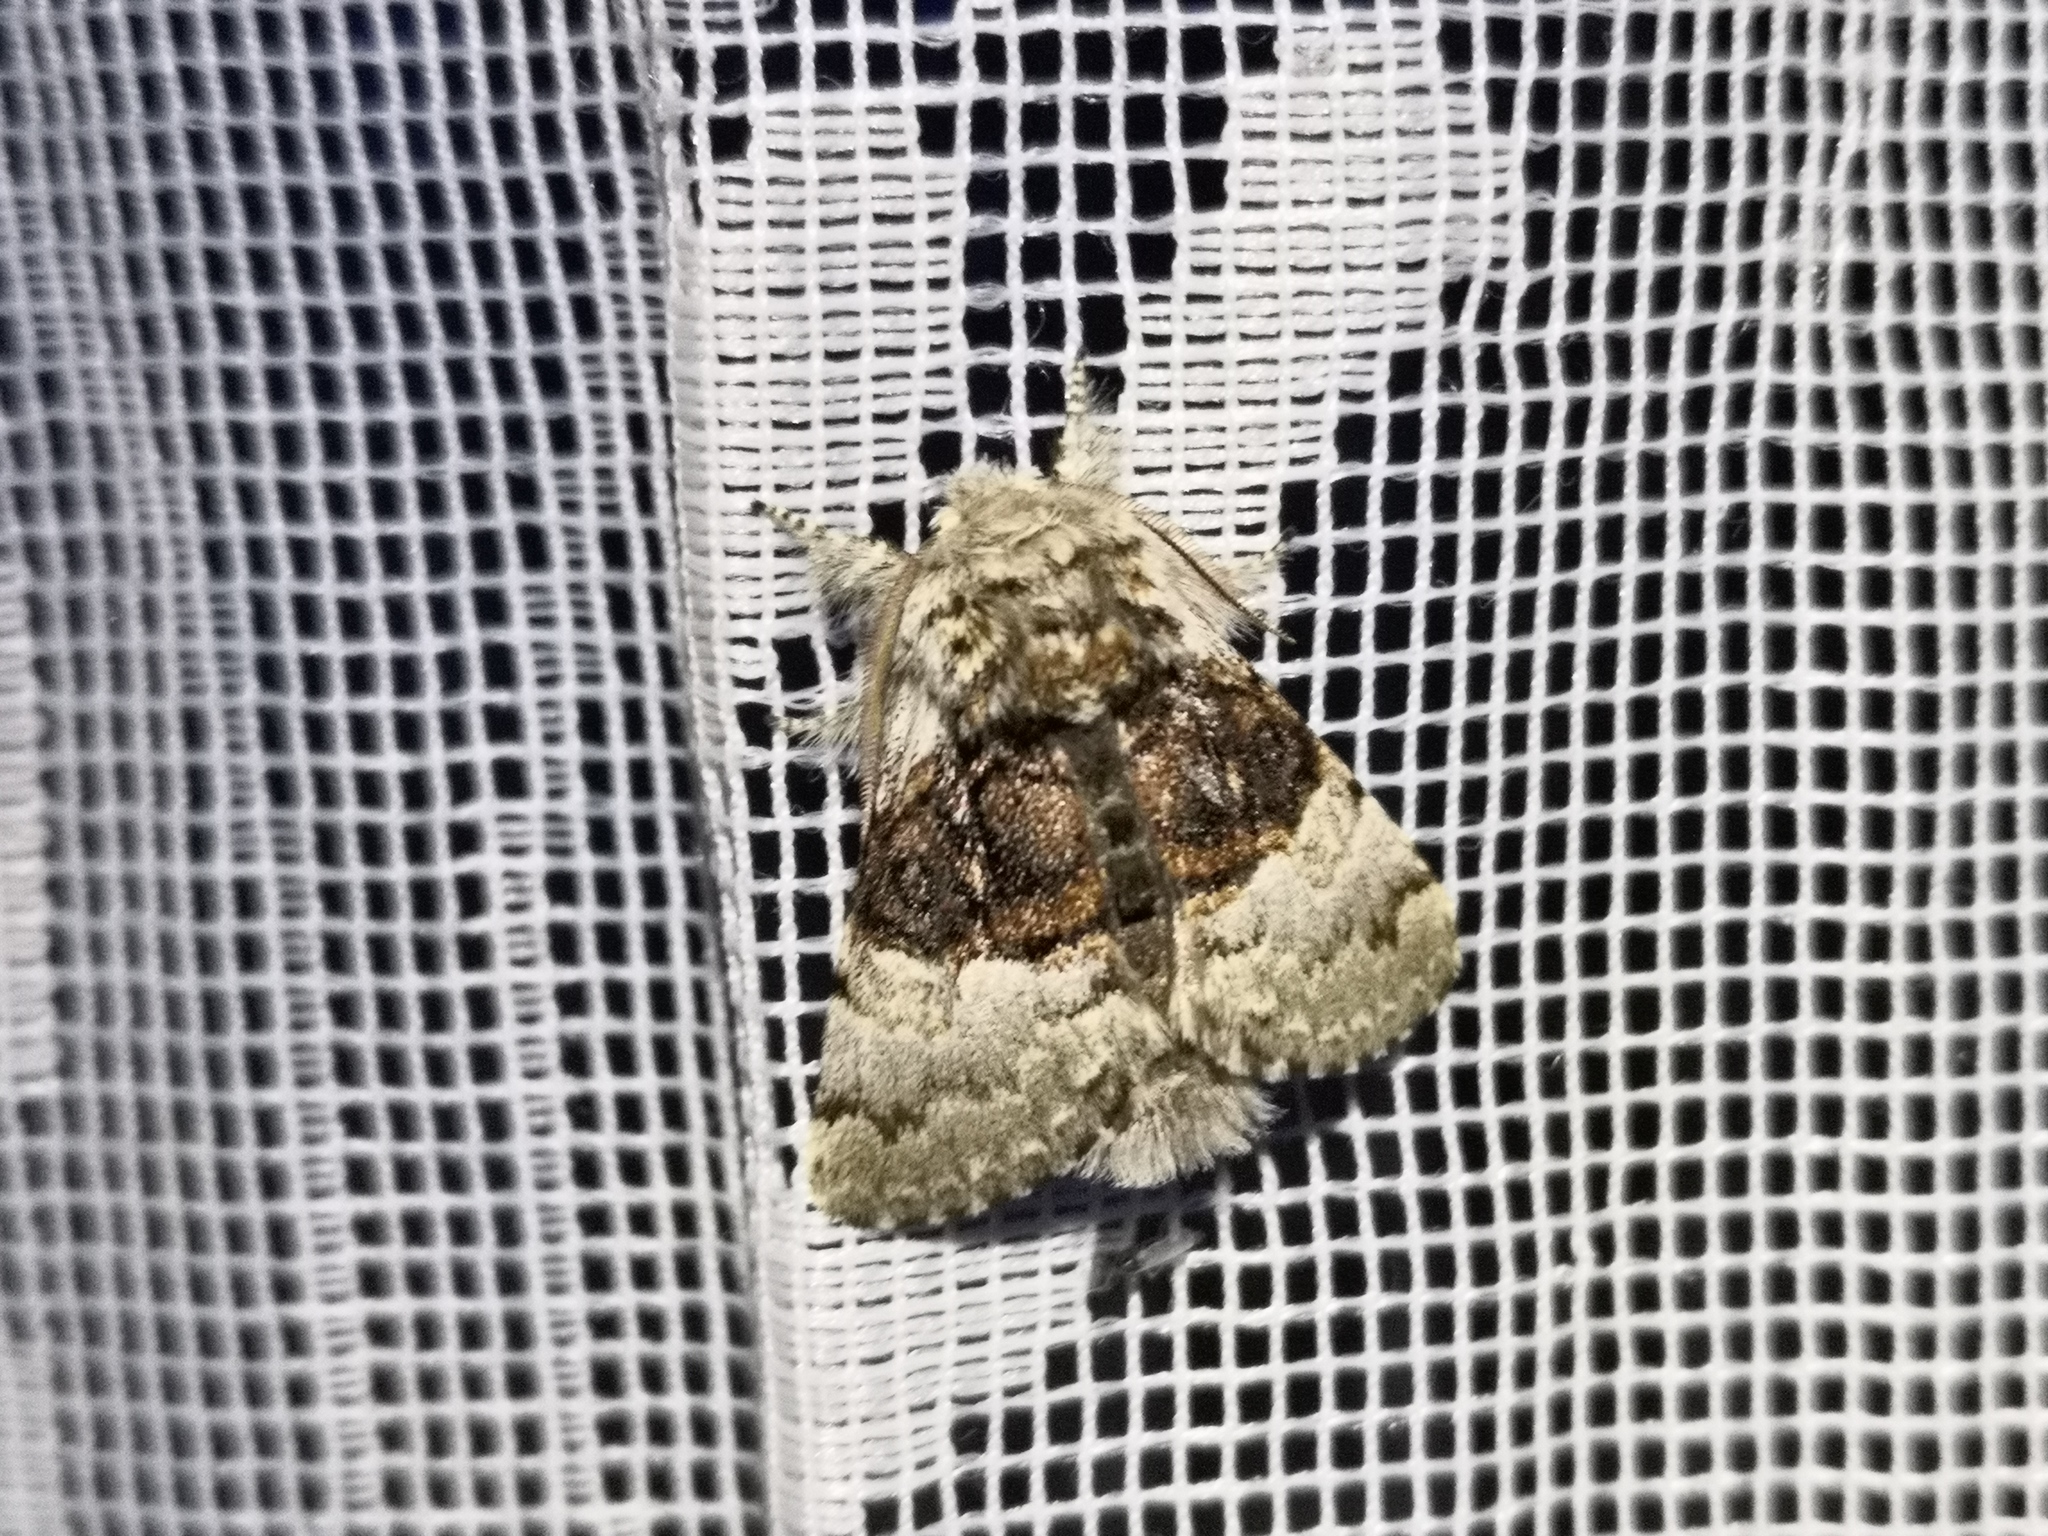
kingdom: Animalia
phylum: Arthropoda
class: Insecta
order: Lepidoptera
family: Noctuidae
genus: Colocasia
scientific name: Colocasia coryli
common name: Nut-tree tussock
